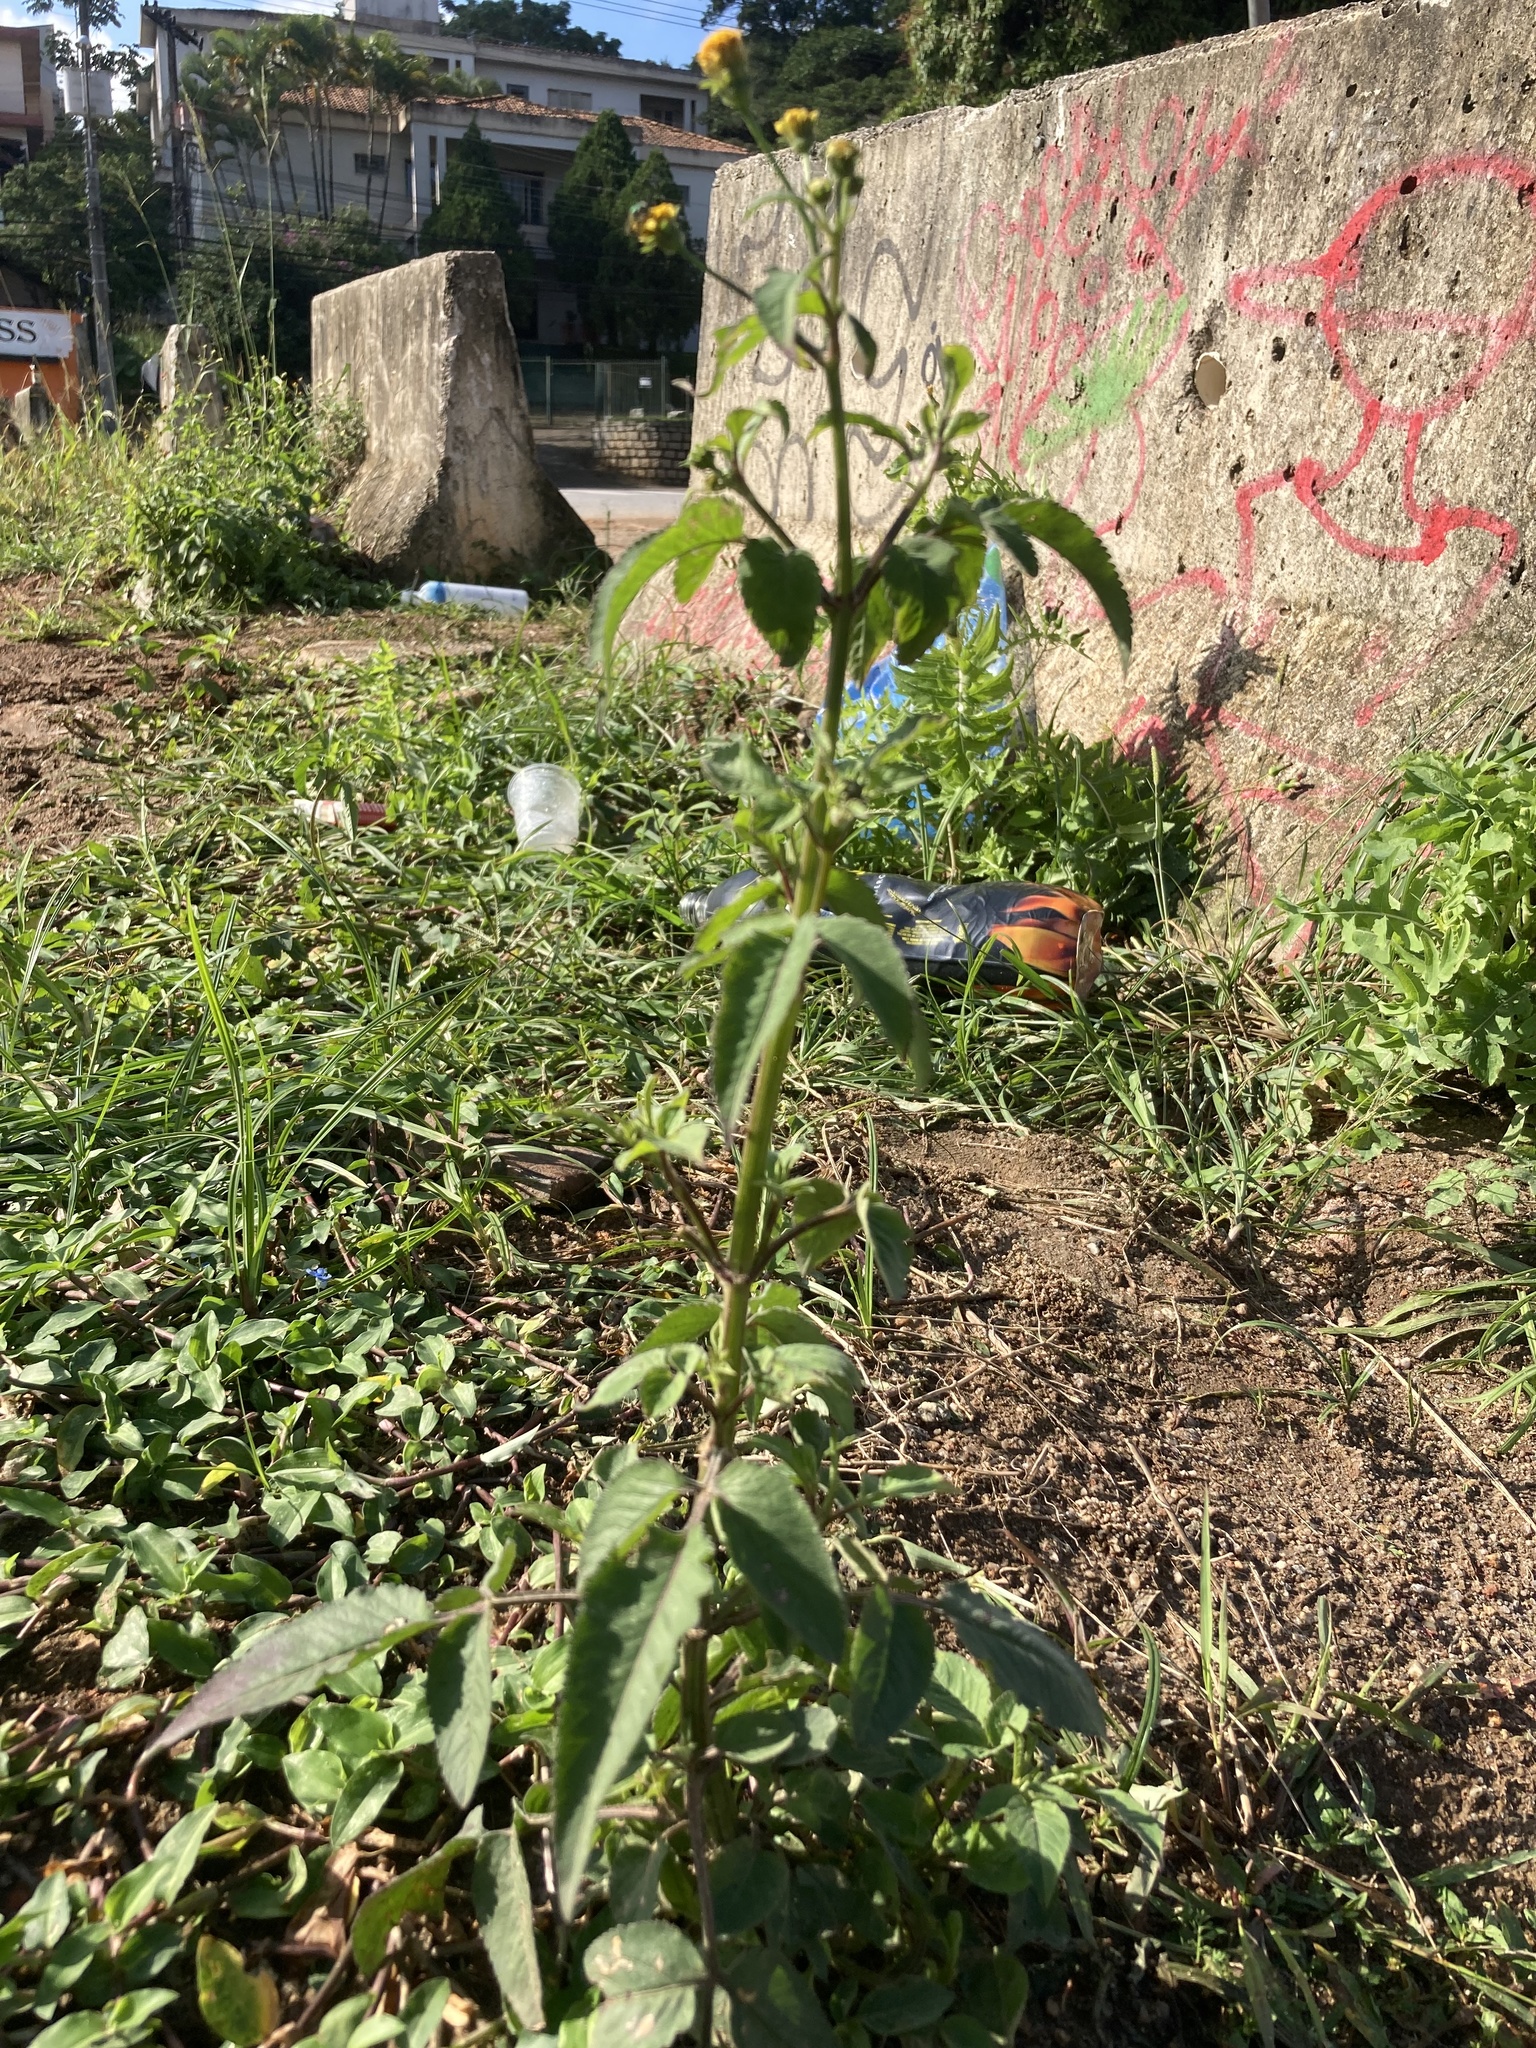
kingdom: Plantae
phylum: Tracheophyta
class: Magnoliopsida
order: Asterales
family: Asteraceae
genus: Bidens
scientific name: Bidens pilosa
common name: Black-jack
